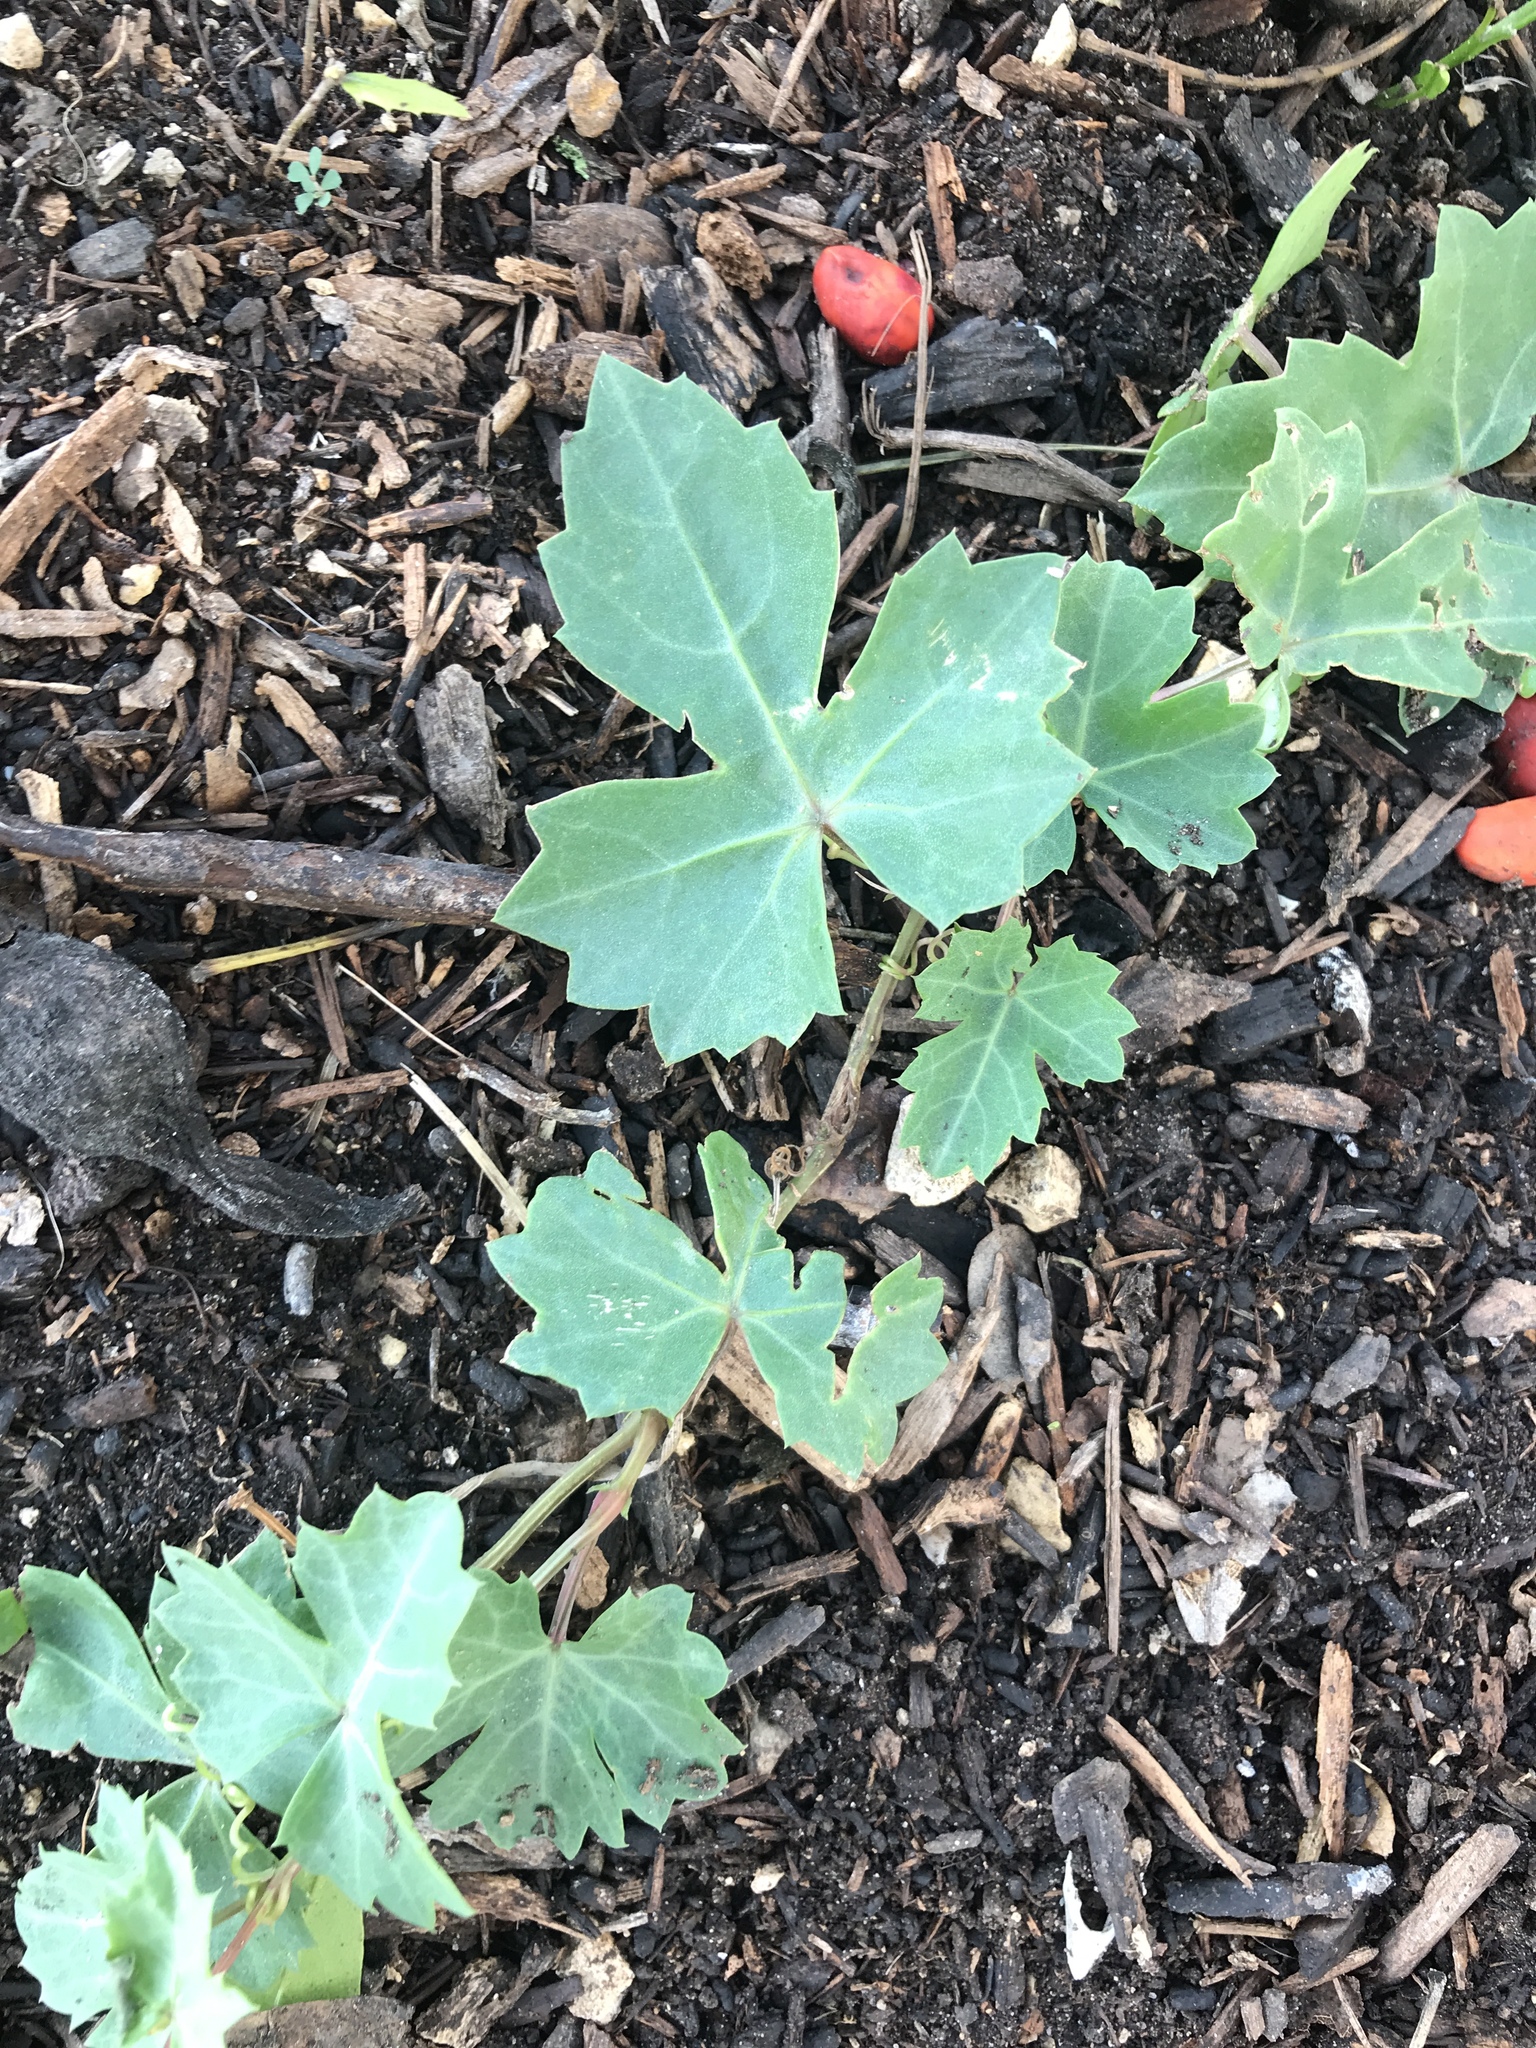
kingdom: Plantae
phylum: Tracheophyta
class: Magnoliopsida
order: Vitales
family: Vitaceae
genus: Cissus
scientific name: Cissus trifoliata
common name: Vine-sorrel
